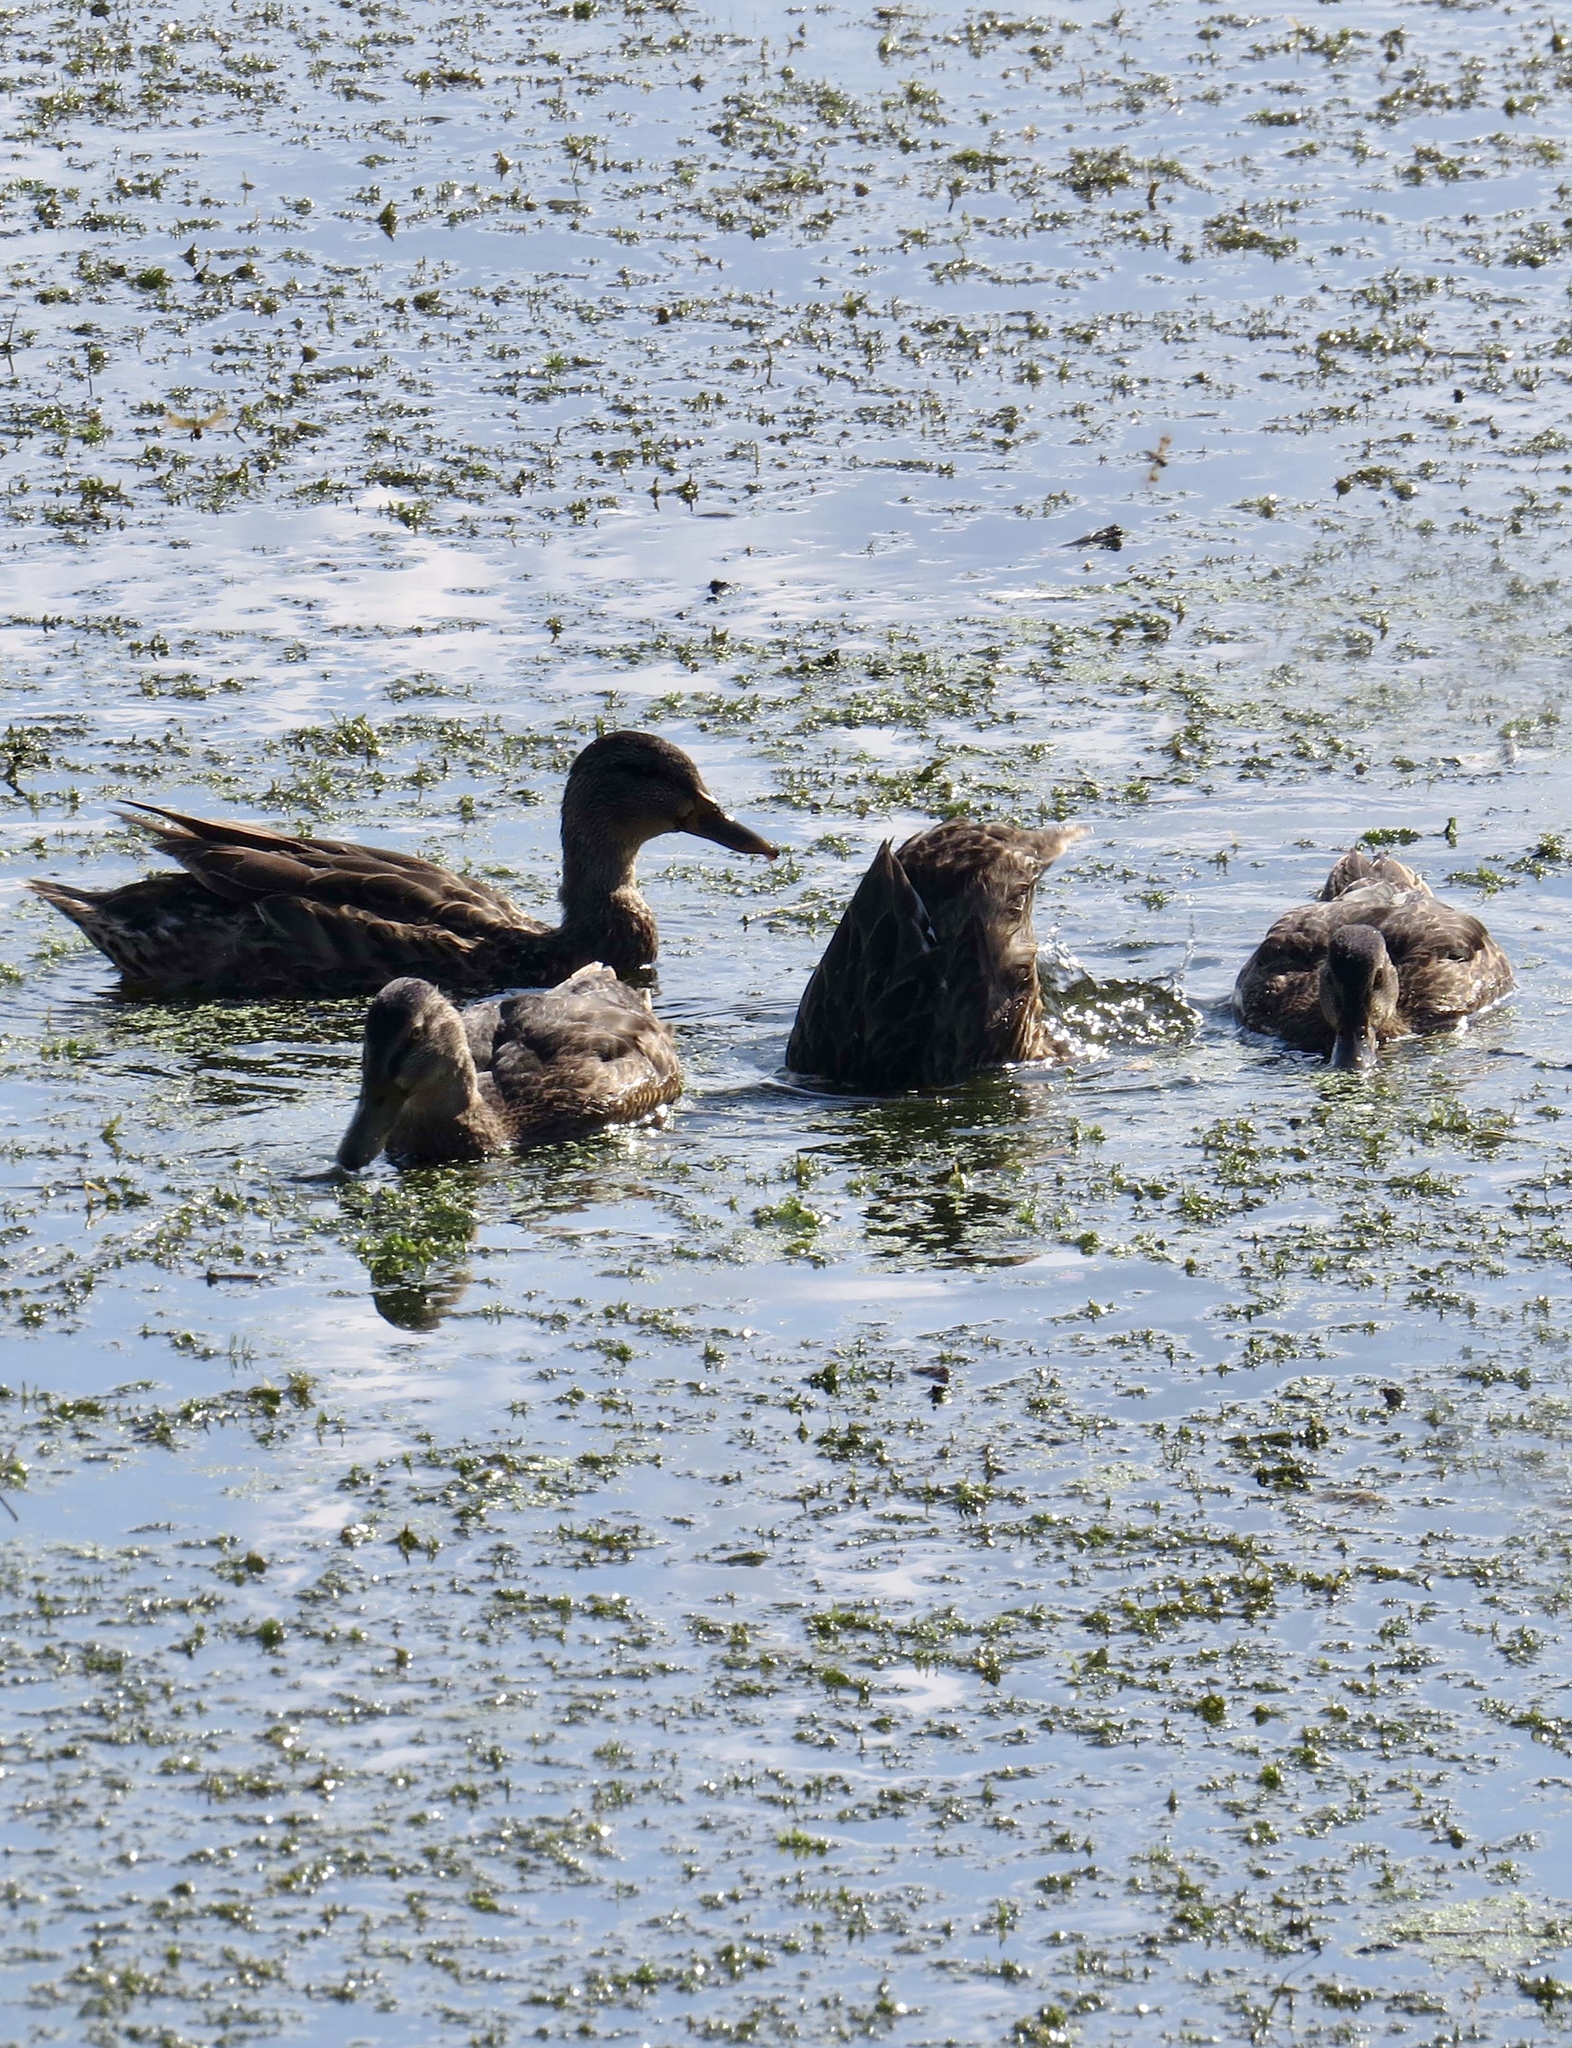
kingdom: Animalia
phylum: Chordata
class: Aves
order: Anseriformes
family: Anatidae
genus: Anas
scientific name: Anas platyrhynchos
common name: Mallard
